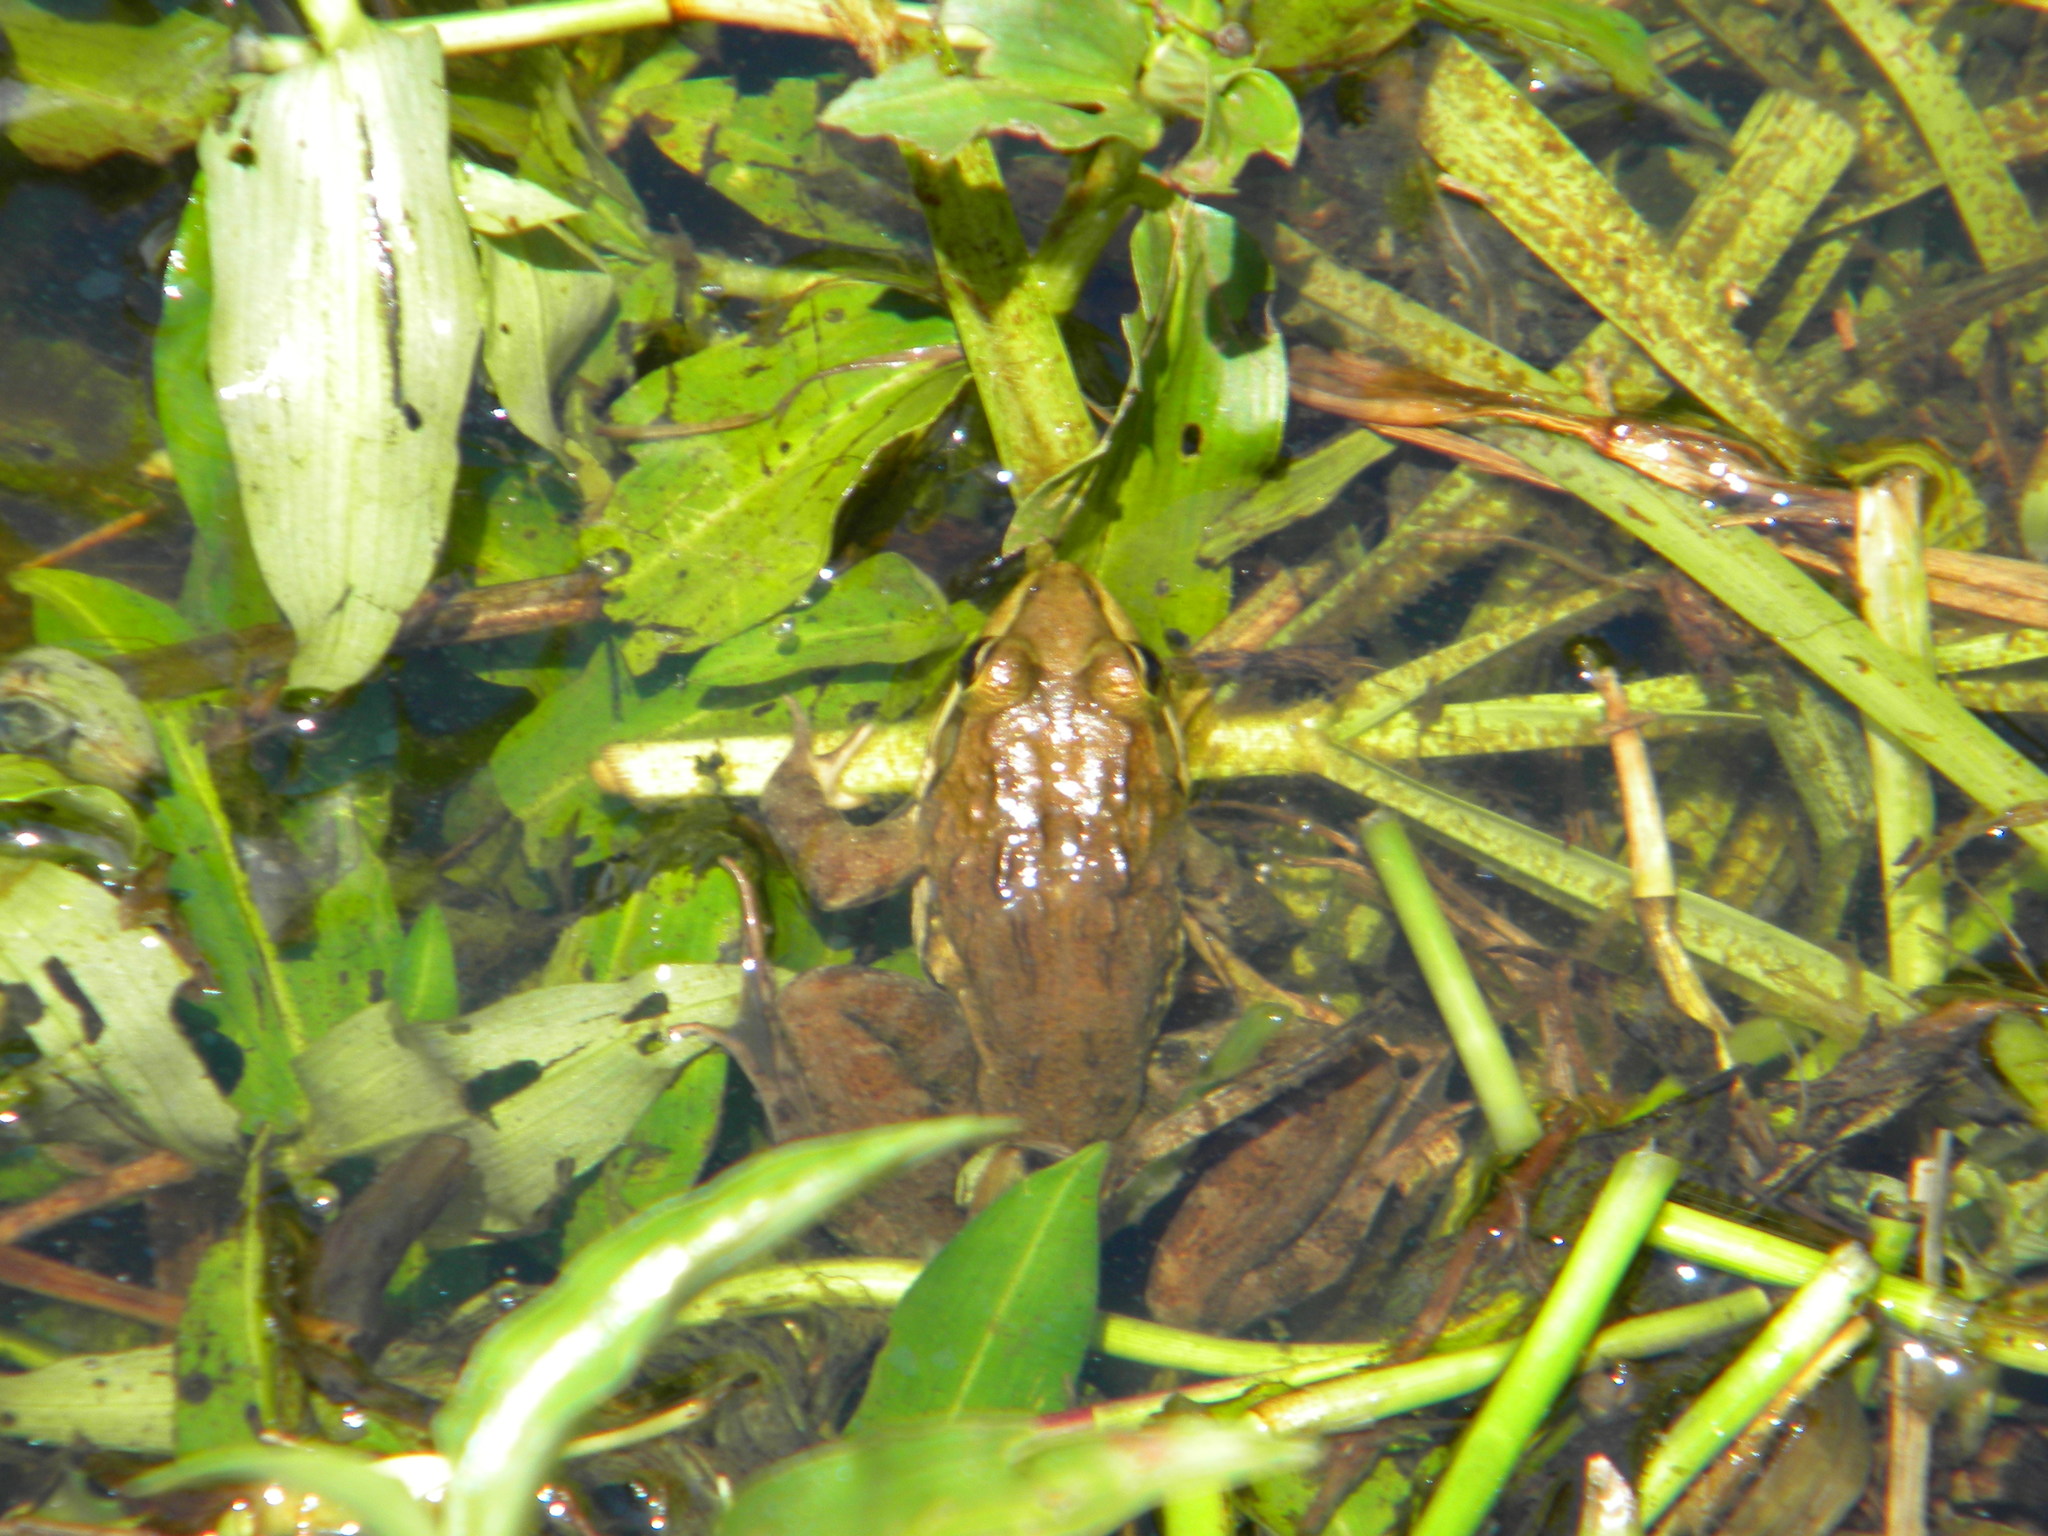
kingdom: Animalia
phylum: Chordata
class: Amphibia
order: Anura
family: Pyxicephalidae
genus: Amietia
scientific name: Amietia fuscigula
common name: Cape rana
